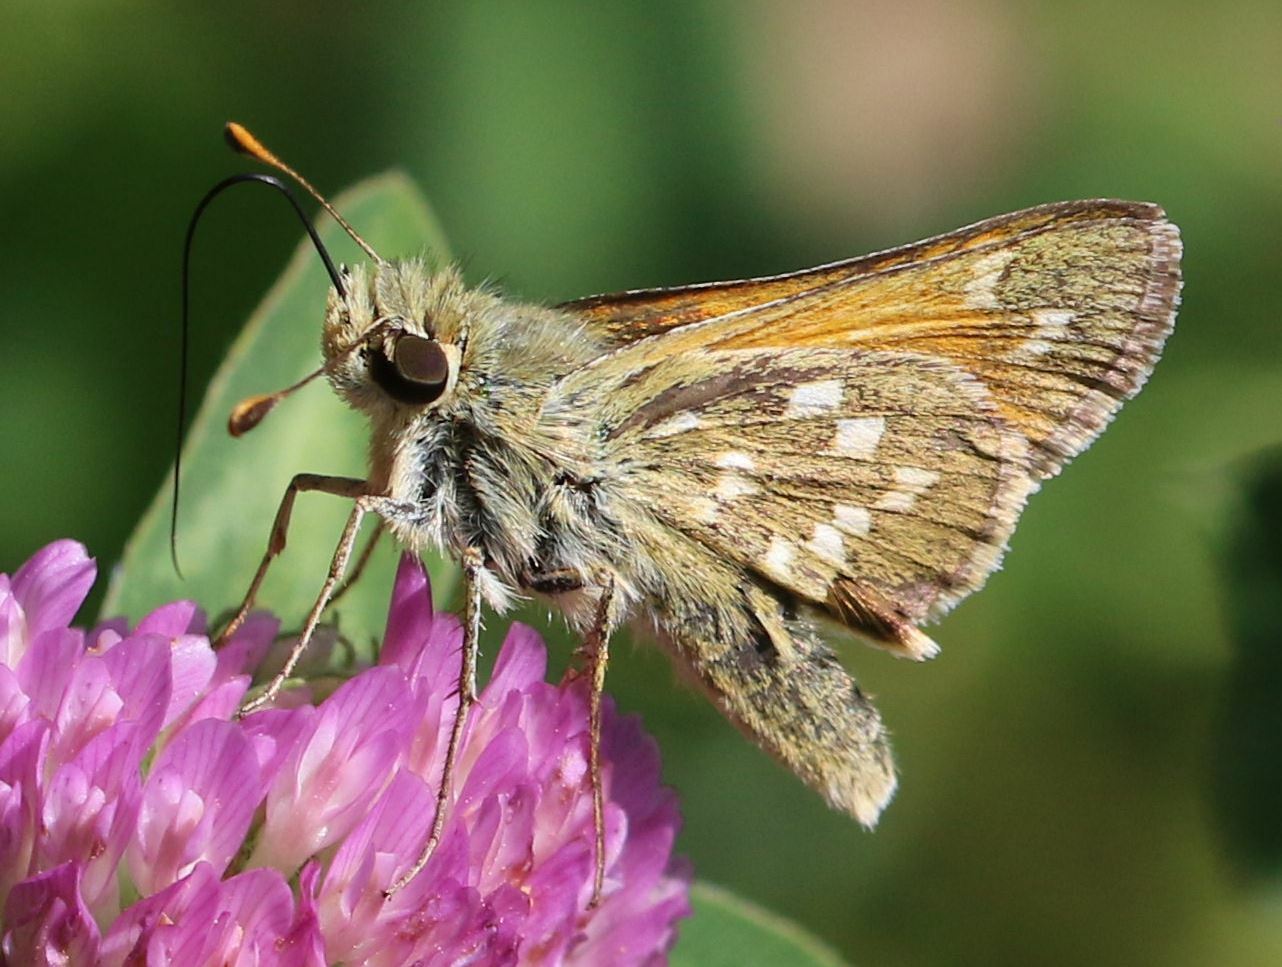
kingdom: Animalia
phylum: Arthropoda
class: Insecta
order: Lepidoptera
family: Hesperiidae
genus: Hesperia
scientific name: Hesperia comma
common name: Common branded skipper
